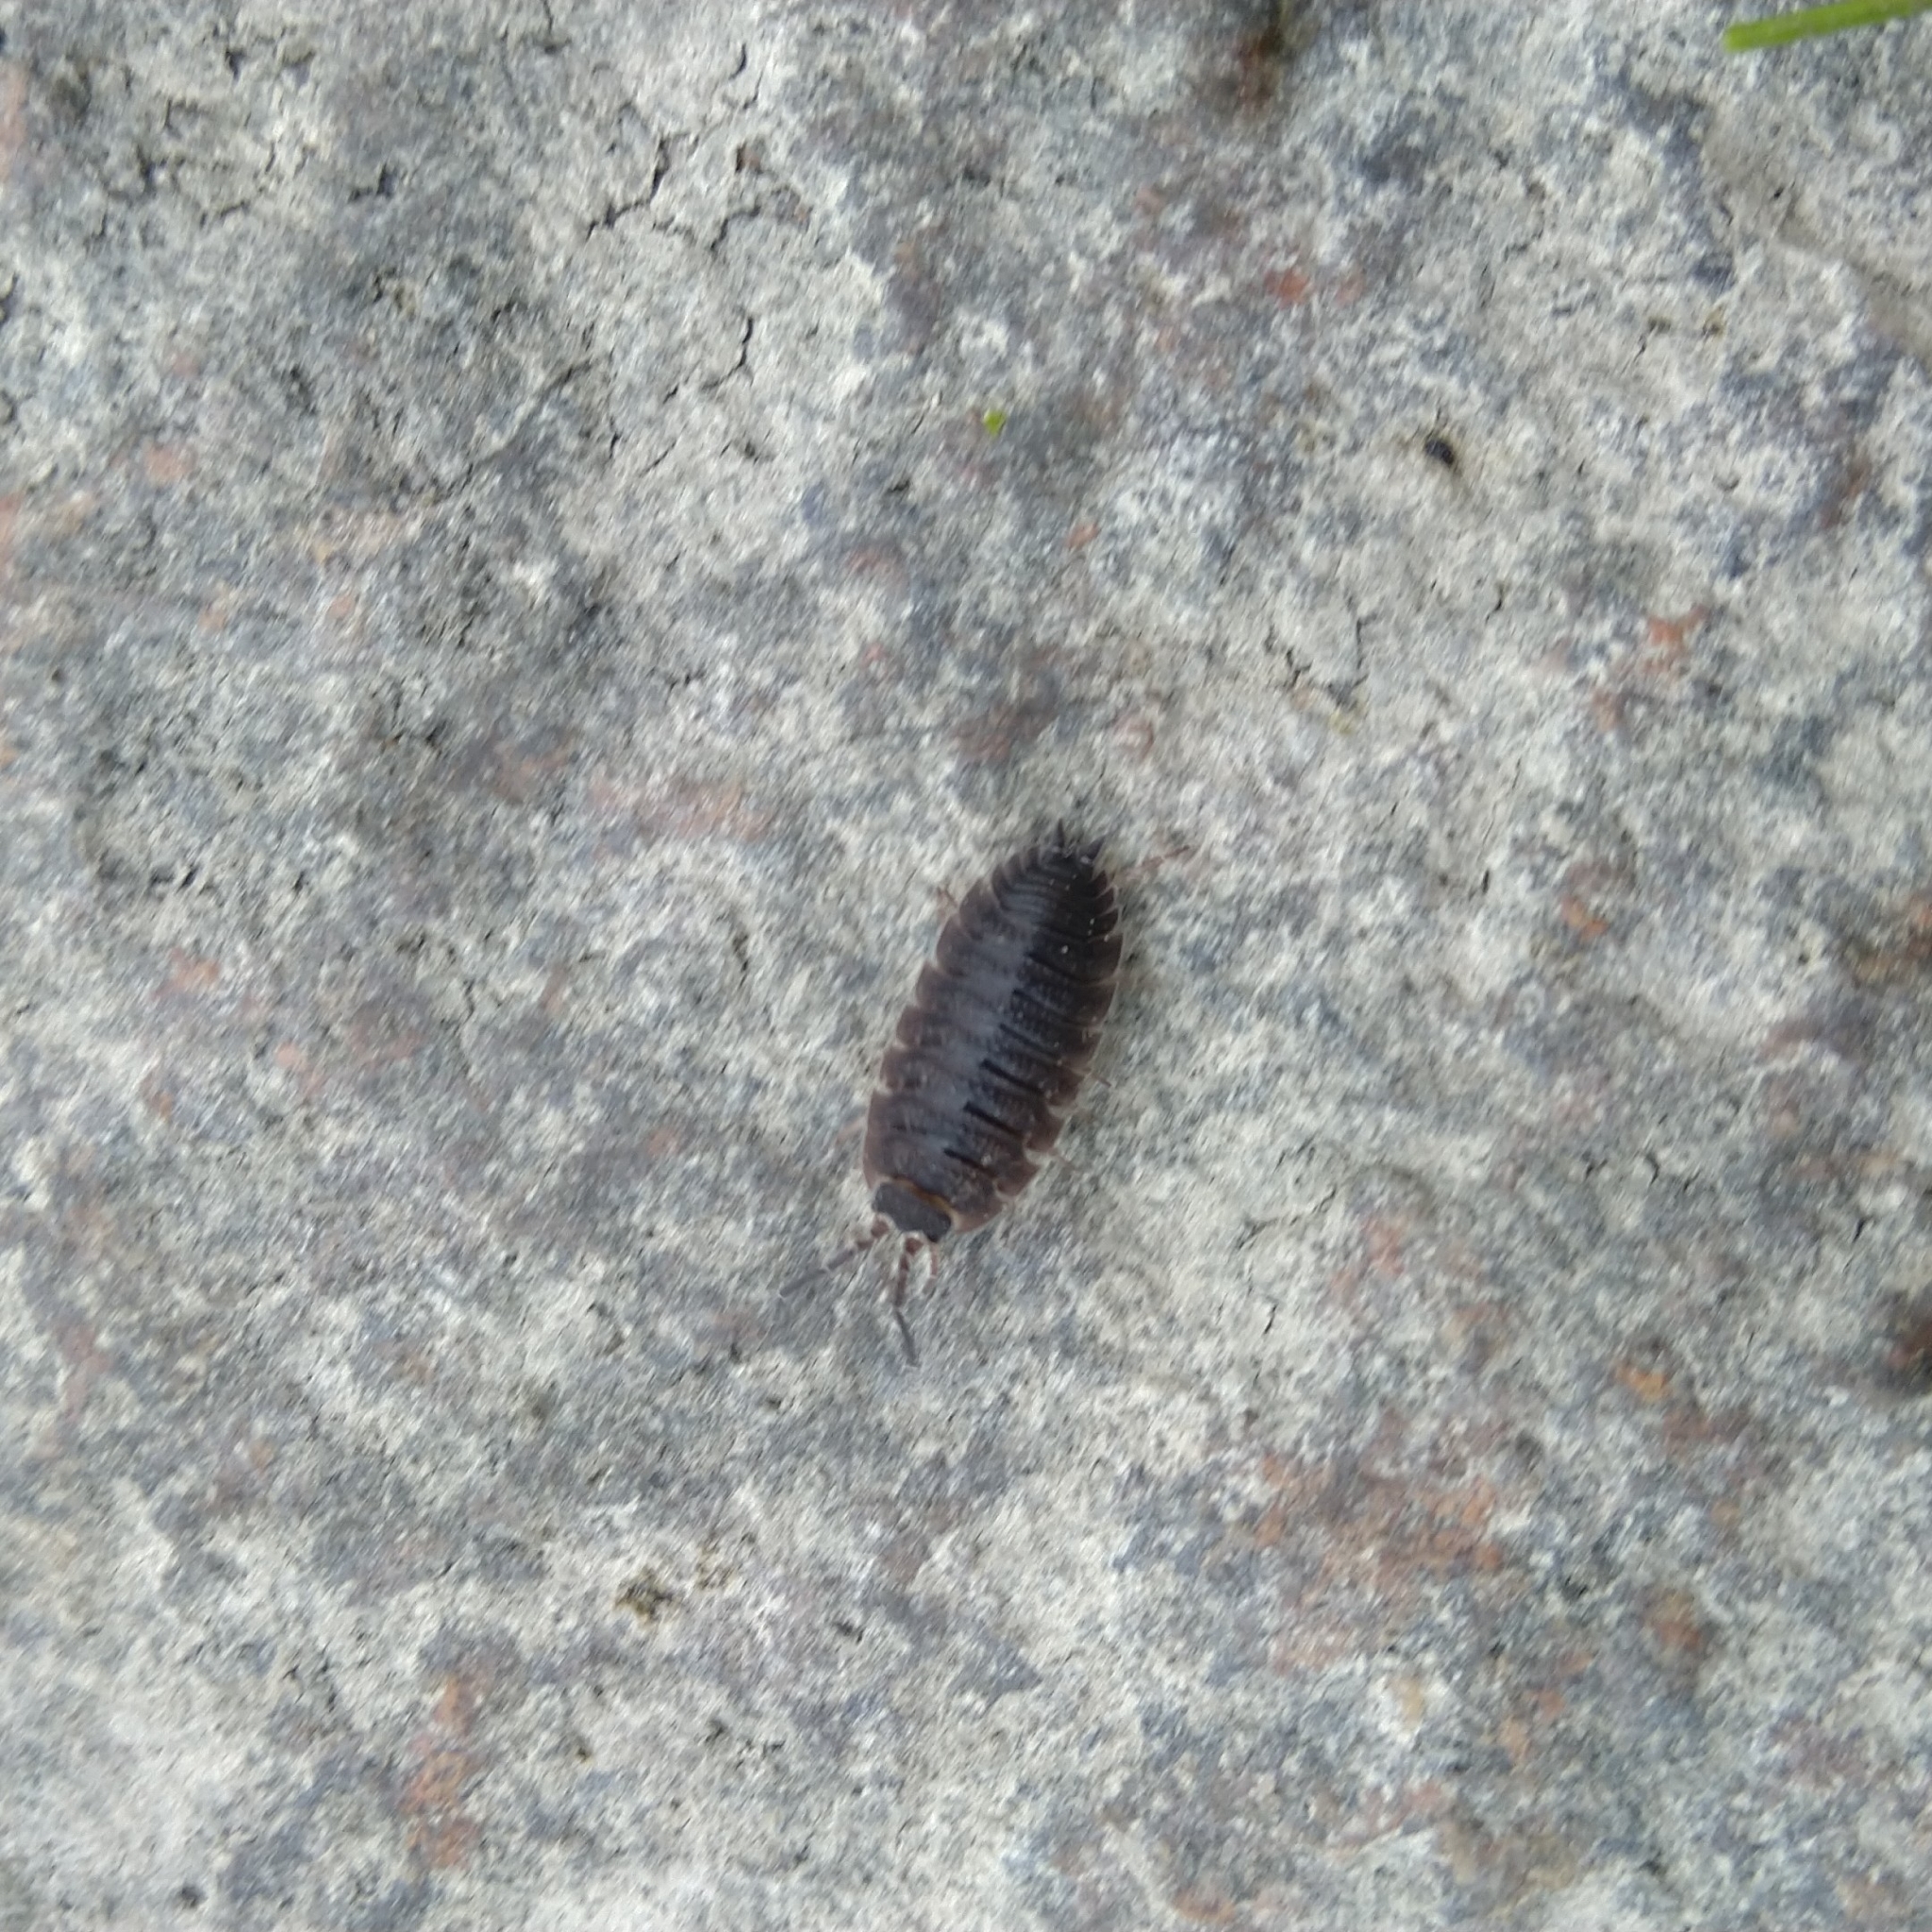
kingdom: Animalia
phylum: Arthropoda
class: Malacostraca
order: Isopoda
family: Porcellionidae
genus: Porcellio
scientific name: Porcellio scaber
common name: Common rough woodlouse
